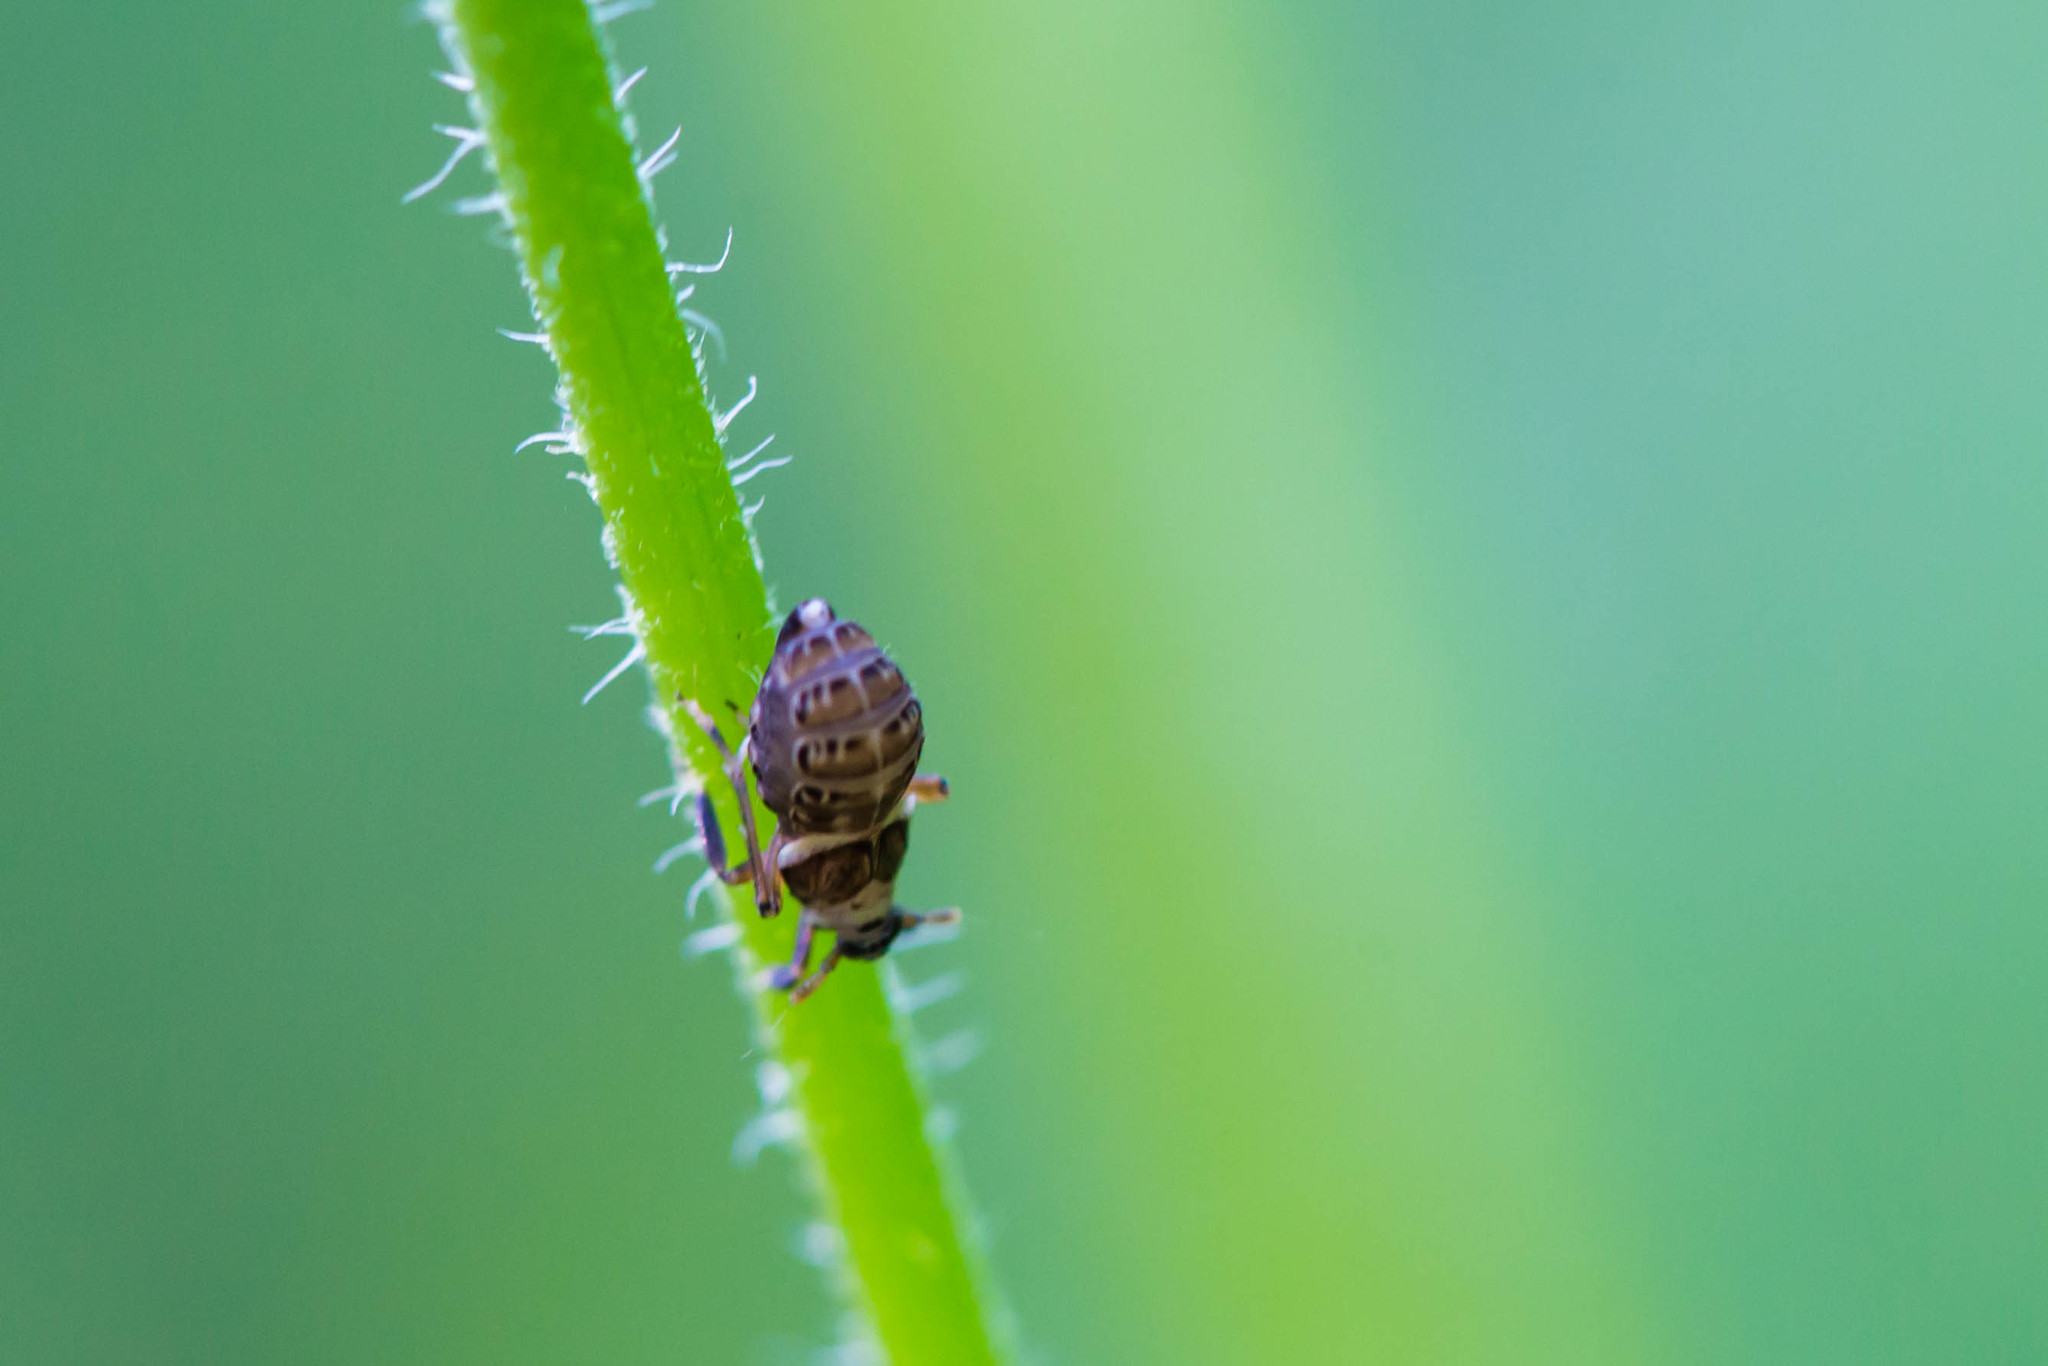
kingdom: Animalia
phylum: Arthropoda
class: Insecta
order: Hemiptera
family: Delphacidae
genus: Pissonotus
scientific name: Pissonotus flabellatus
